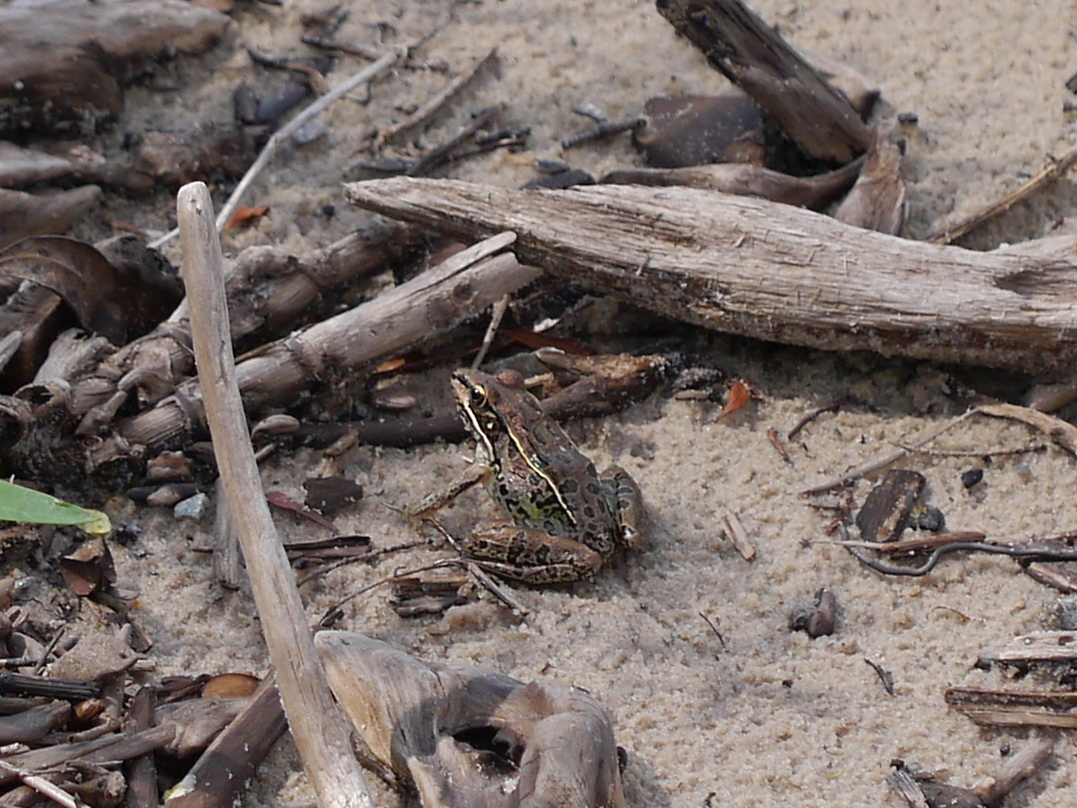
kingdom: Animalia
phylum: Chordata
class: Amphibia
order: Anura
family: Ranidae
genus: Lithobates
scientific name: Lithobates sphenocephalus
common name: Southern leopard frog
